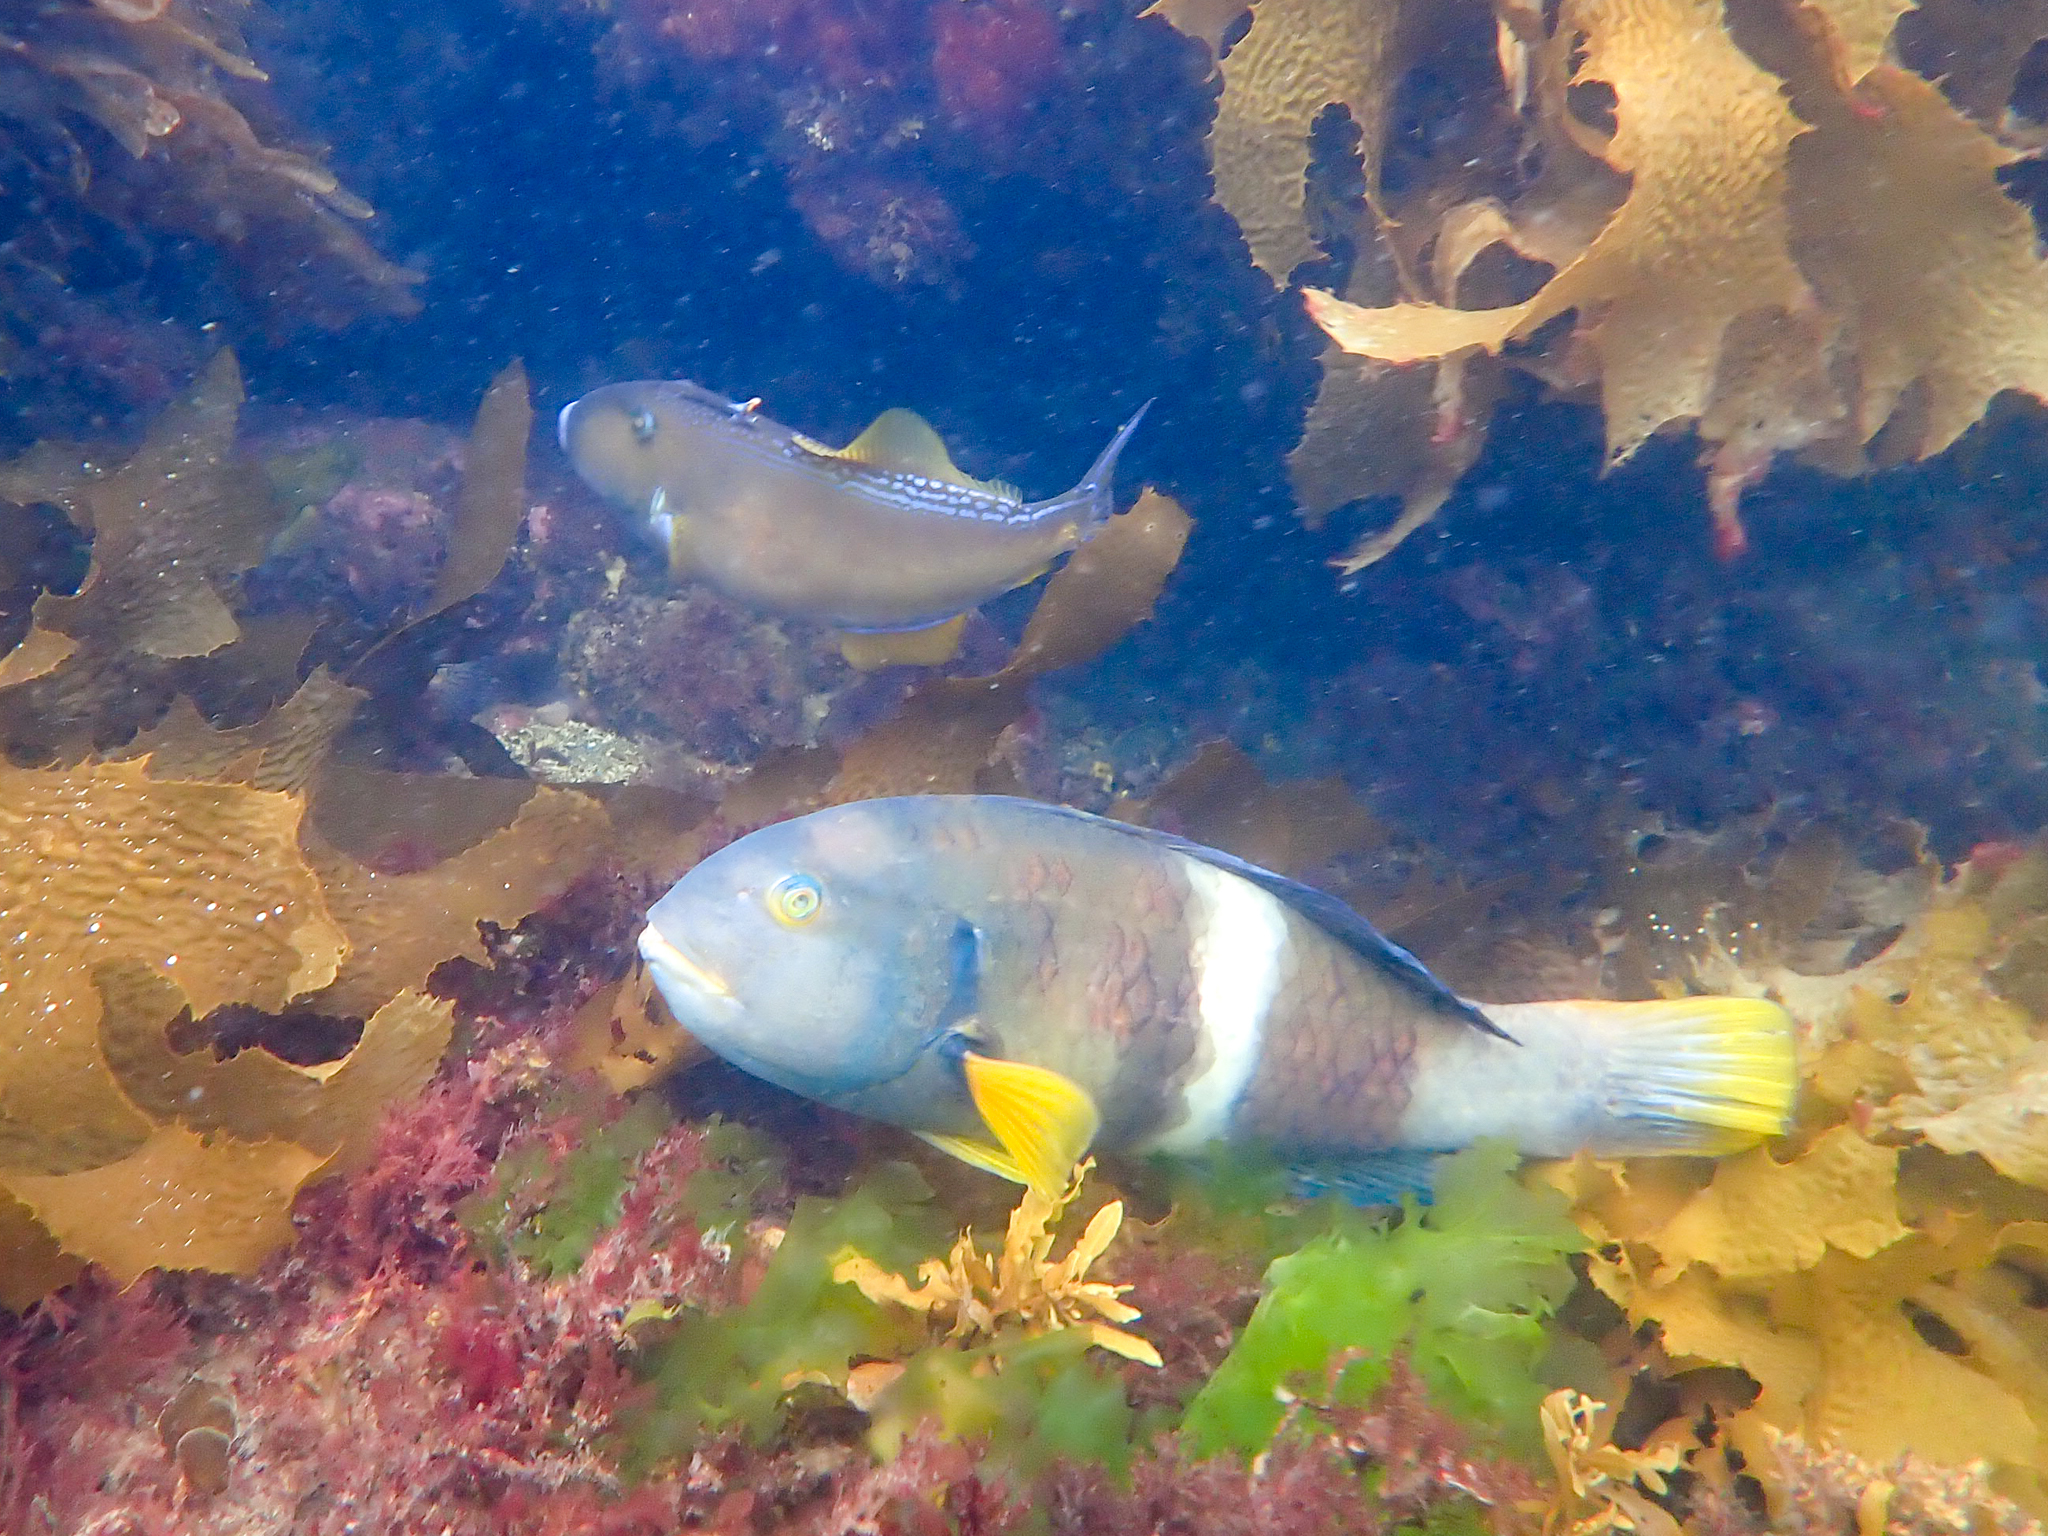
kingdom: Animalia
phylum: Chordata
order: Tetraodontiformes
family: Monacanthidae
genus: Meuschenia
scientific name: Meuschenia freycineti
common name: Freycinet's leatherjacket
